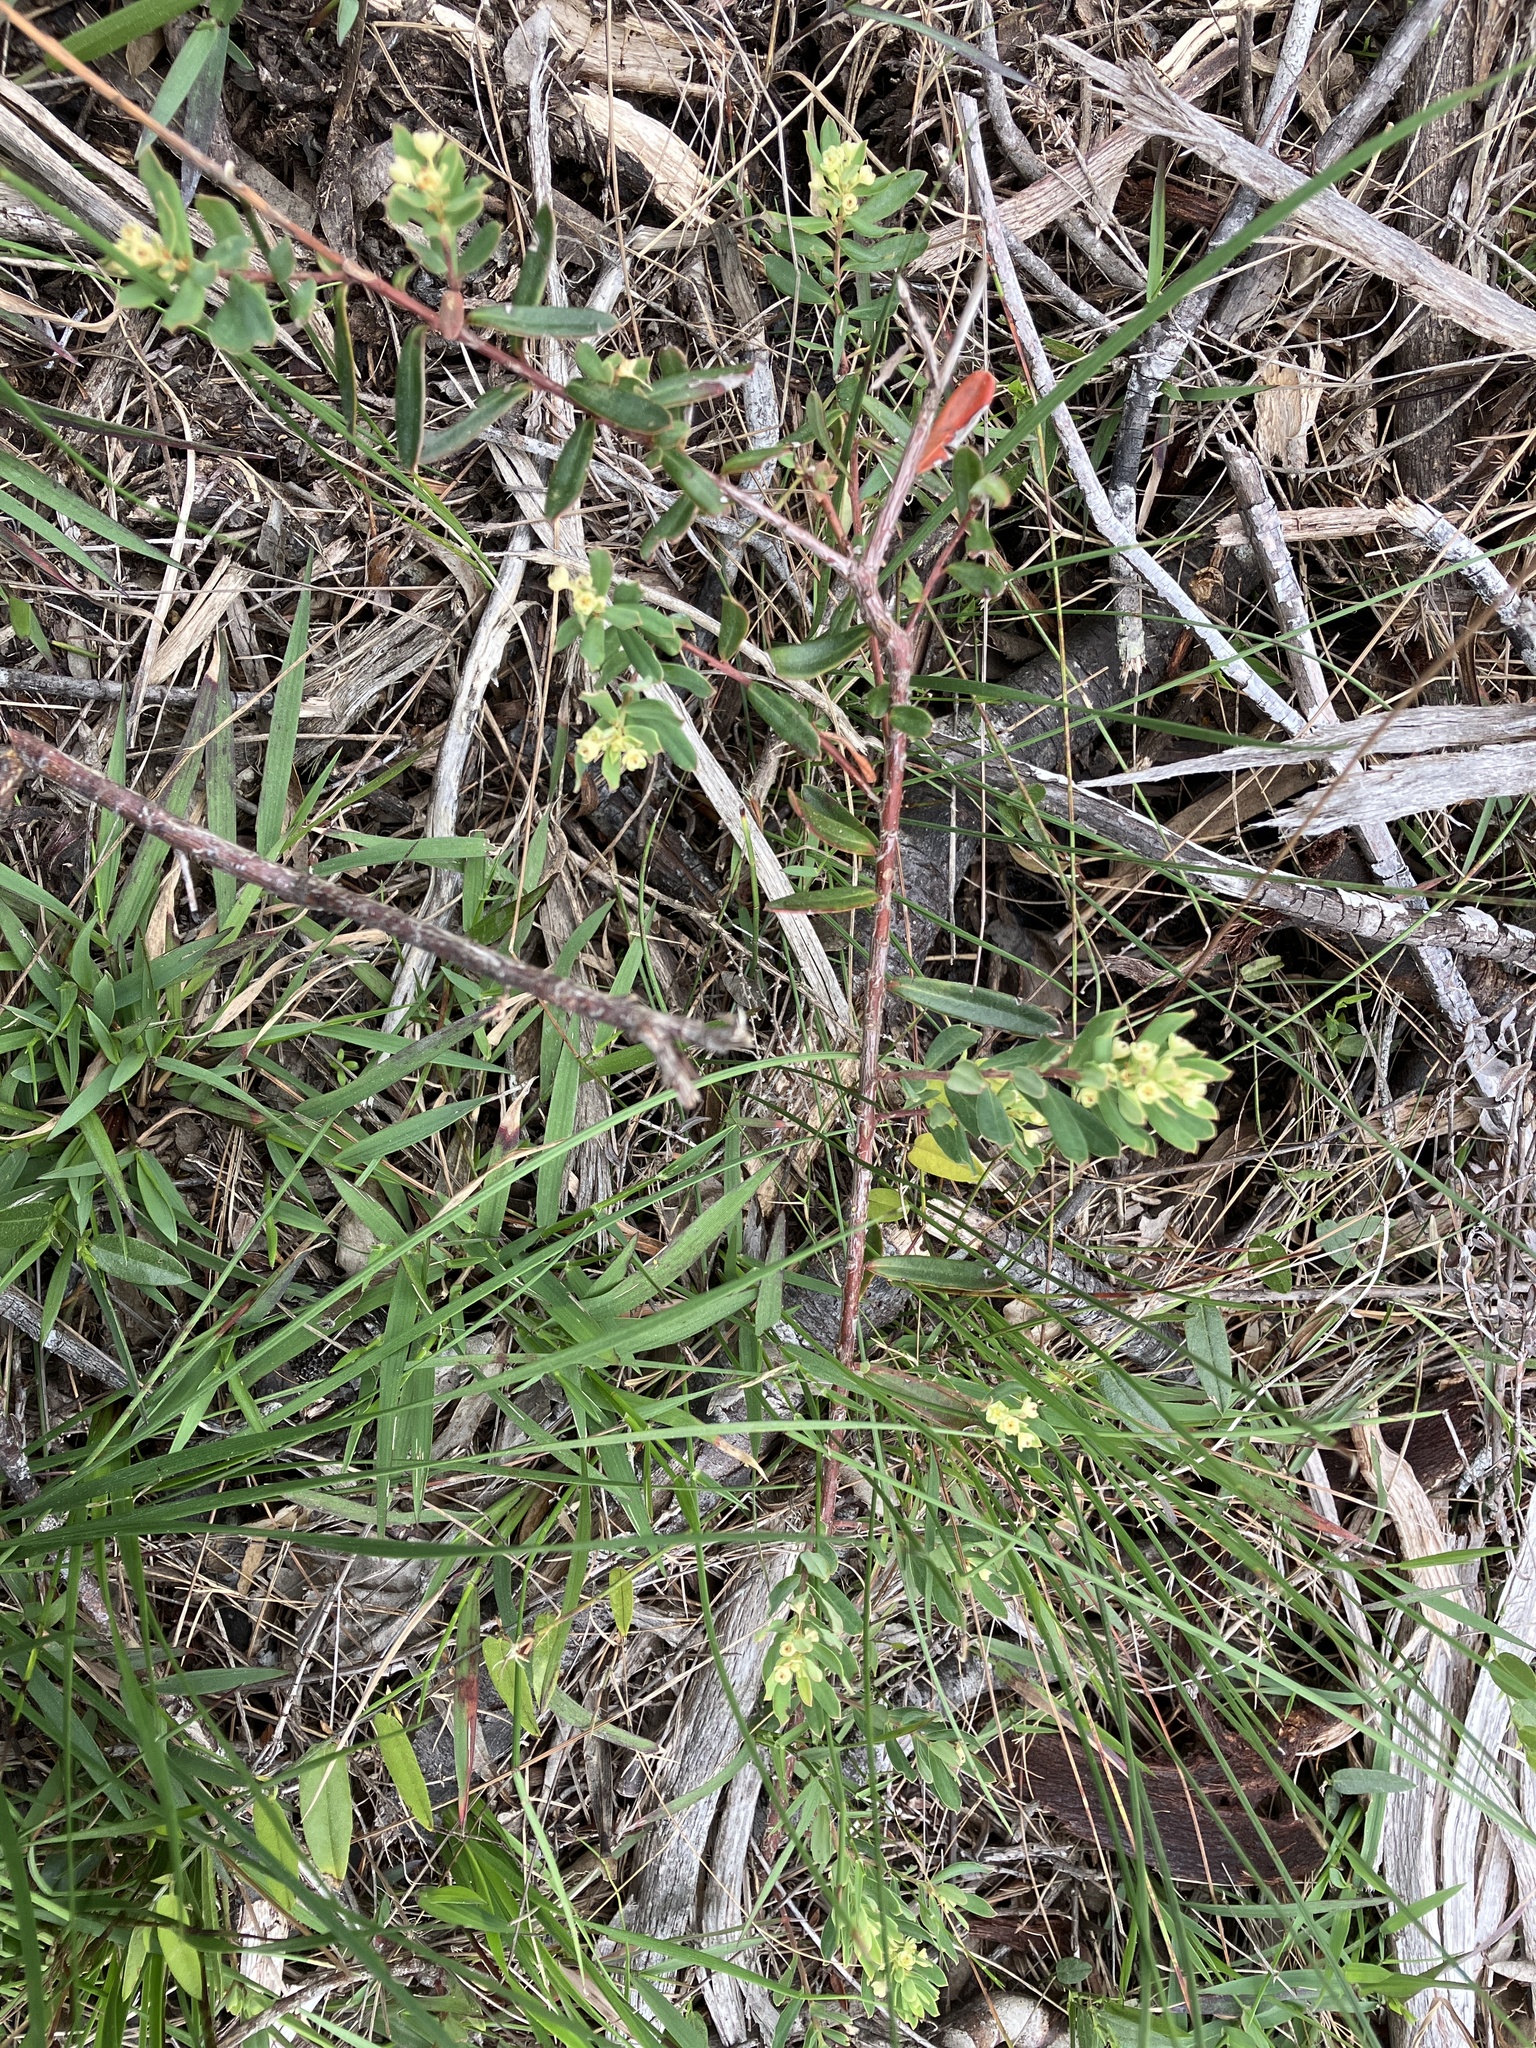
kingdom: Plantae
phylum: Tracheophyta
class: Magnoliopsida
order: Malpighiales
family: Peraceae
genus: Clutia
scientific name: Clutia alaternoides
